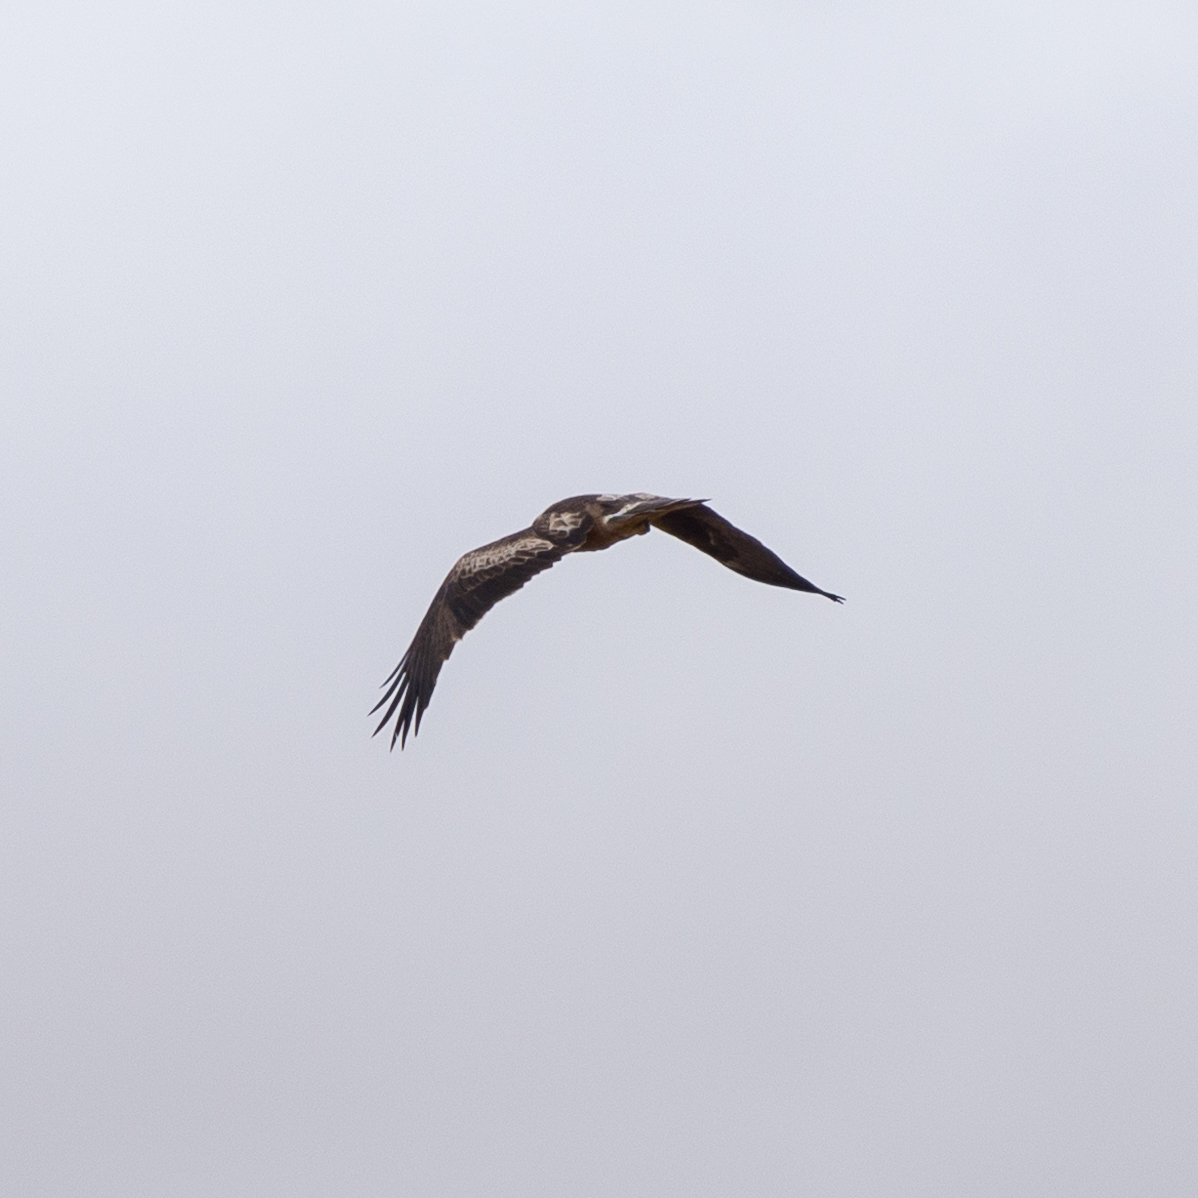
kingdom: Animalia
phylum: Chordata
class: Aves
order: Accipitriformes
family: Accipitridae
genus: Hieraaetus
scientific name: Hieraaetus pennatus
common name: Booted eagle
